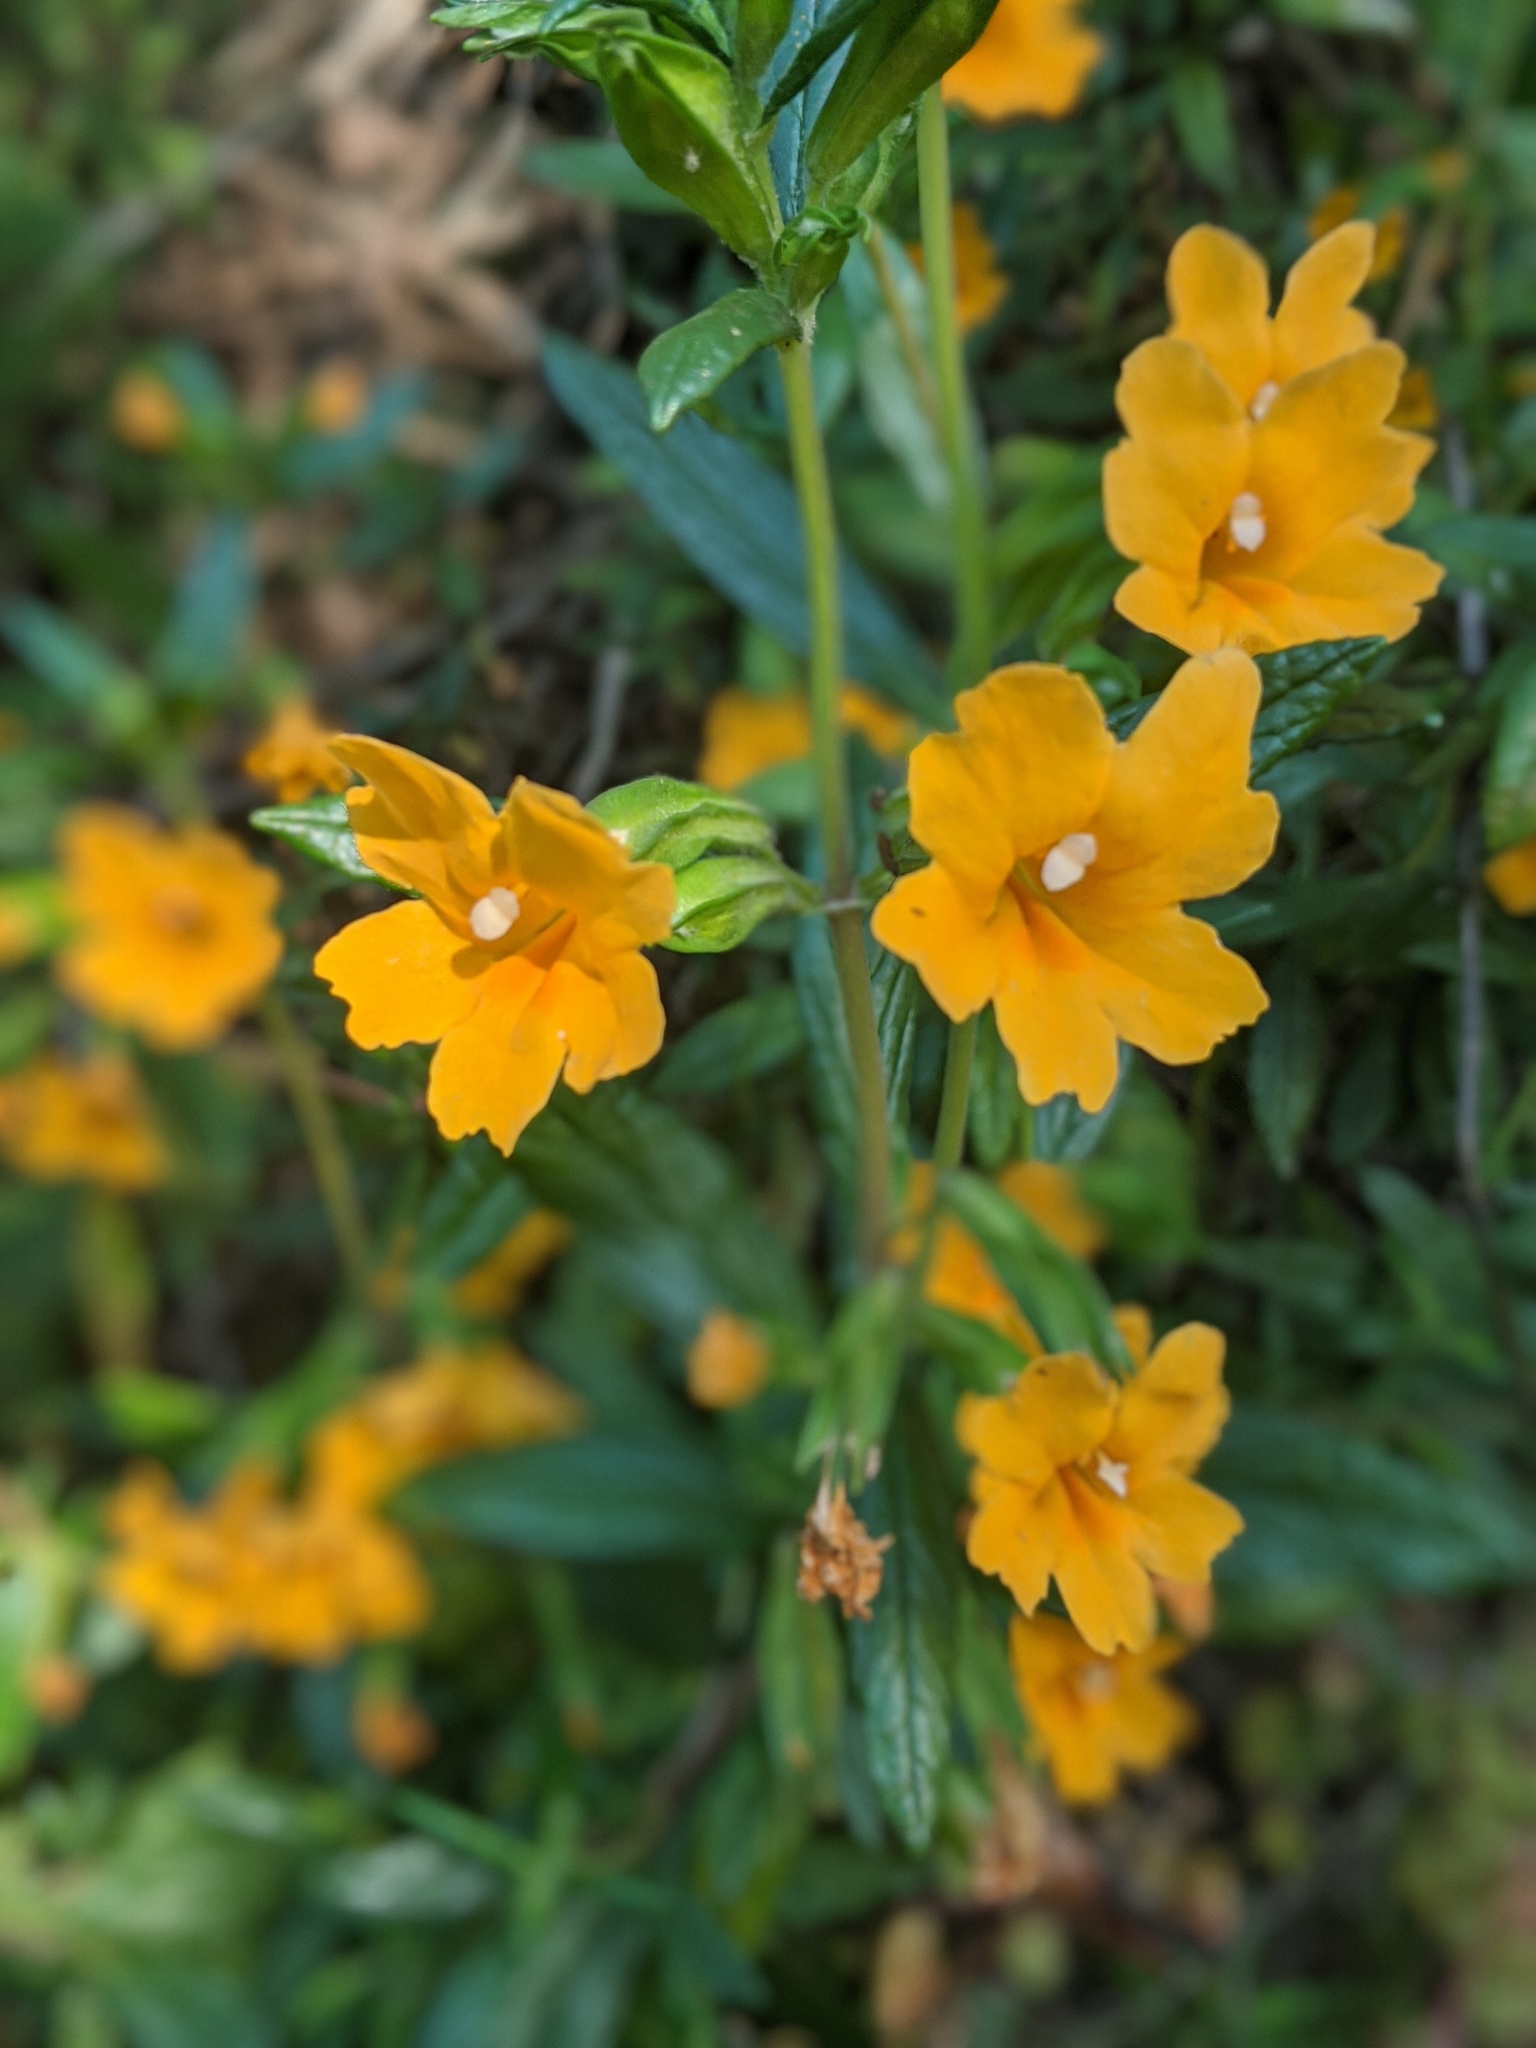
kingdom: Plantae
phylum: Tracheophyta
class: Magnoliopsida
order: Lamiales
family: Phrymaceae
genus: Diplacus
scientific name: Diplacus aurantiacus
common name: Bush monkey-flower
